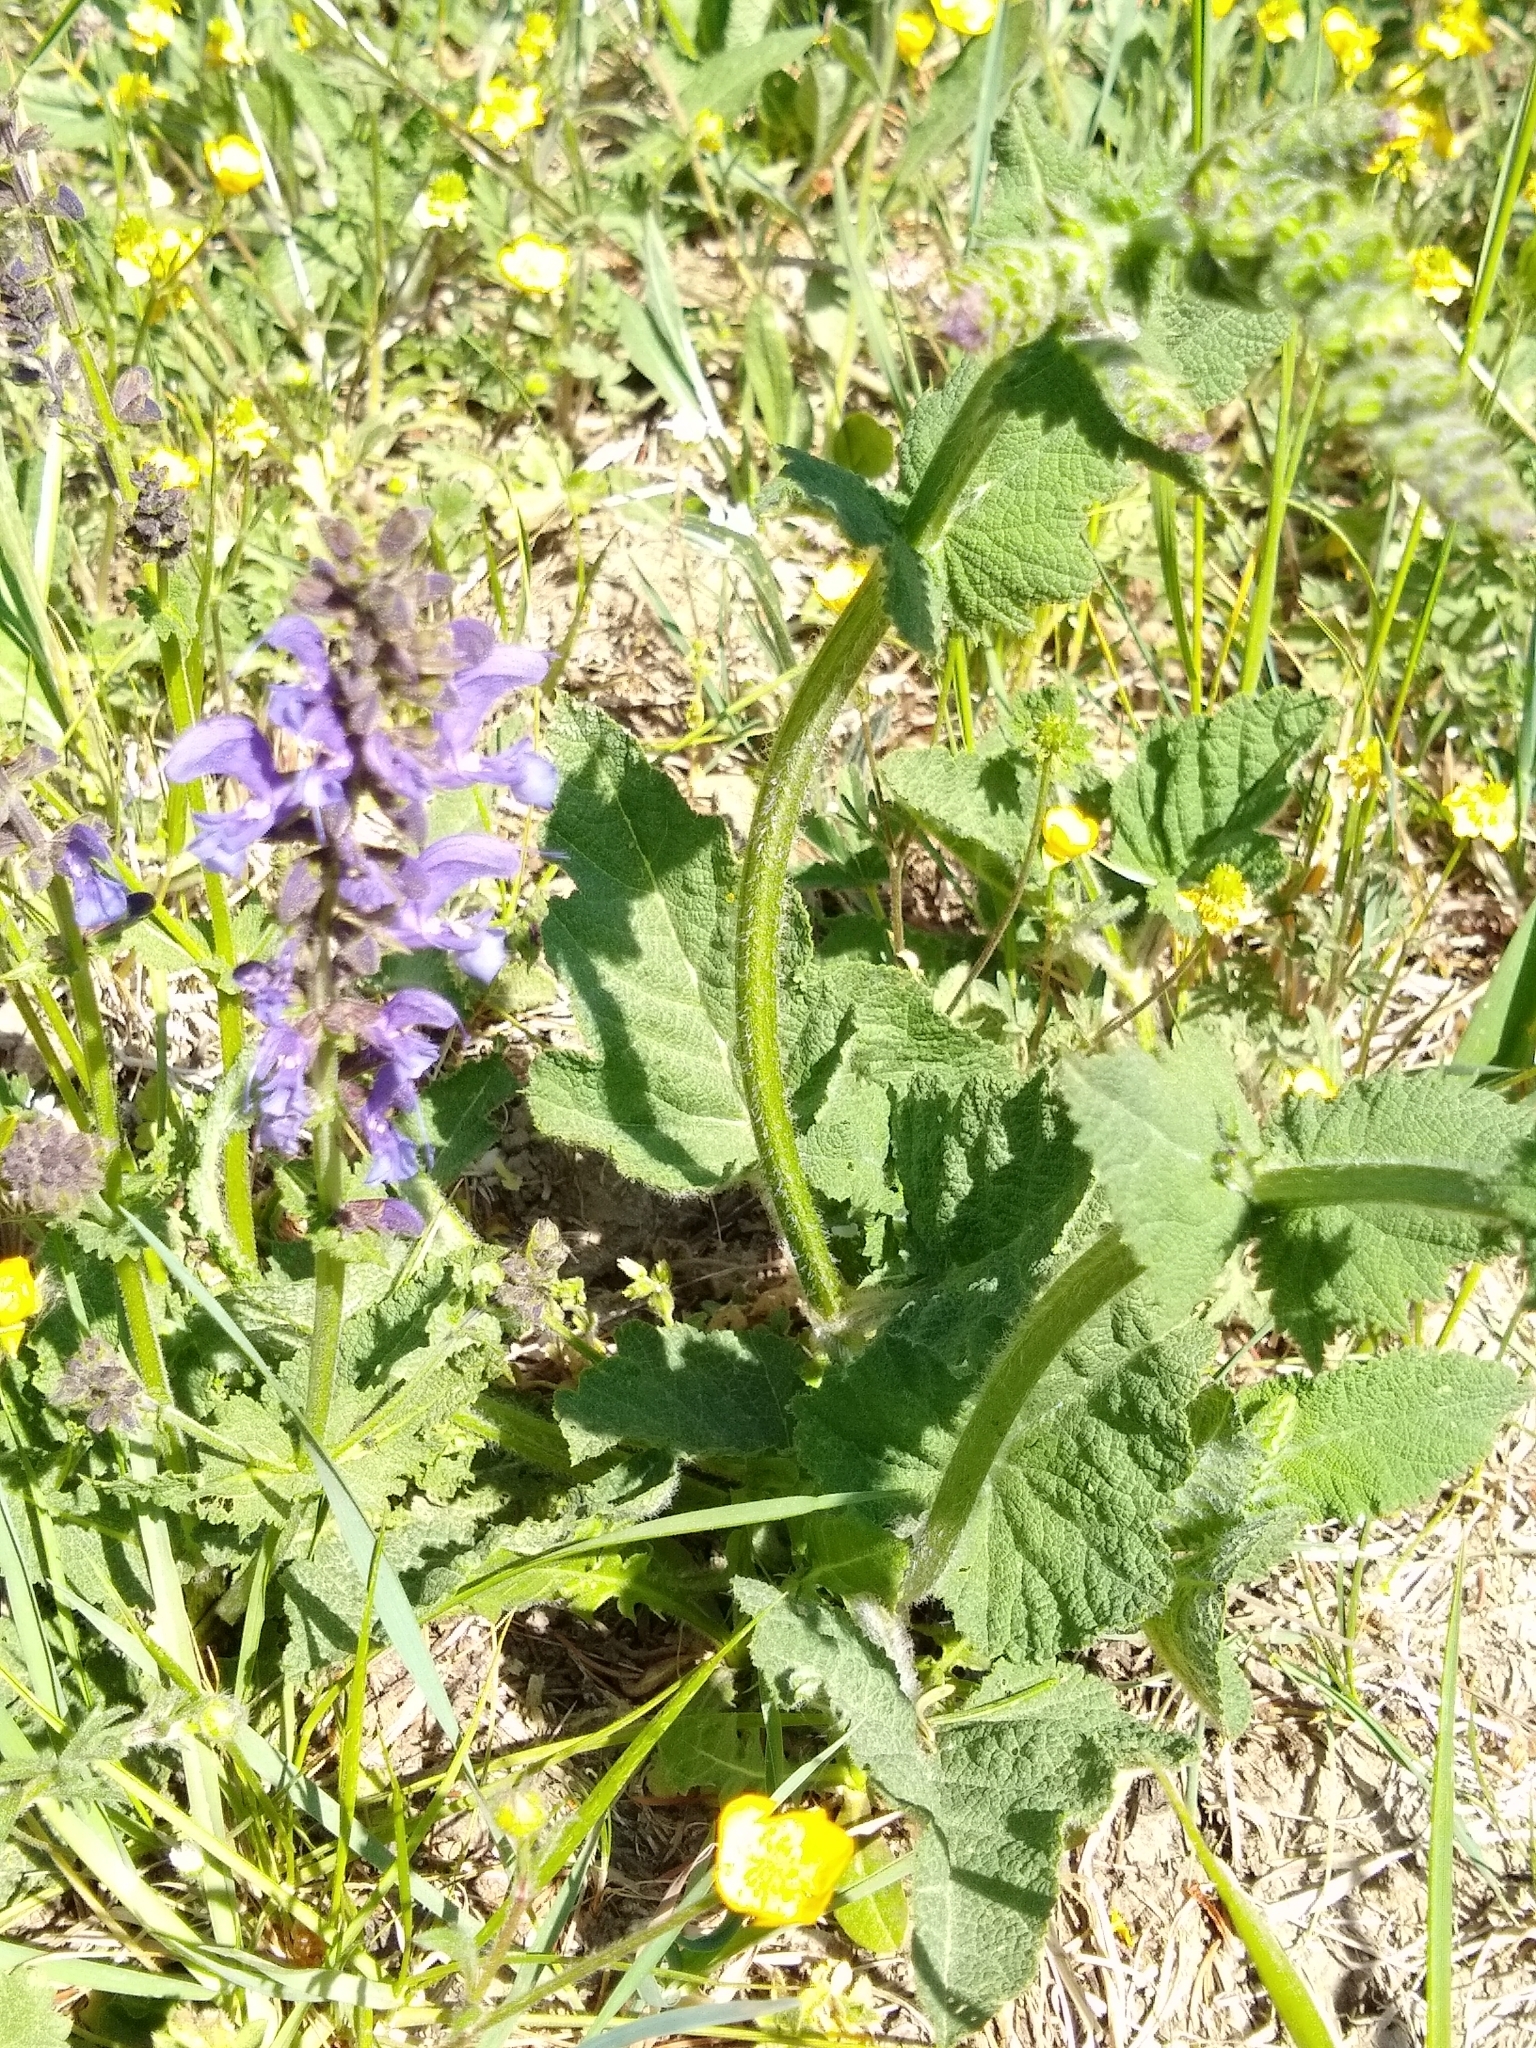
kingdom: Plantae
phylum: Tracheophyta
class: Magnoliopsida
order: Lamiales
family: Lamiaceae
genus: Salvia
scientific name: Salvia pratensis
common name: Meadow sage
